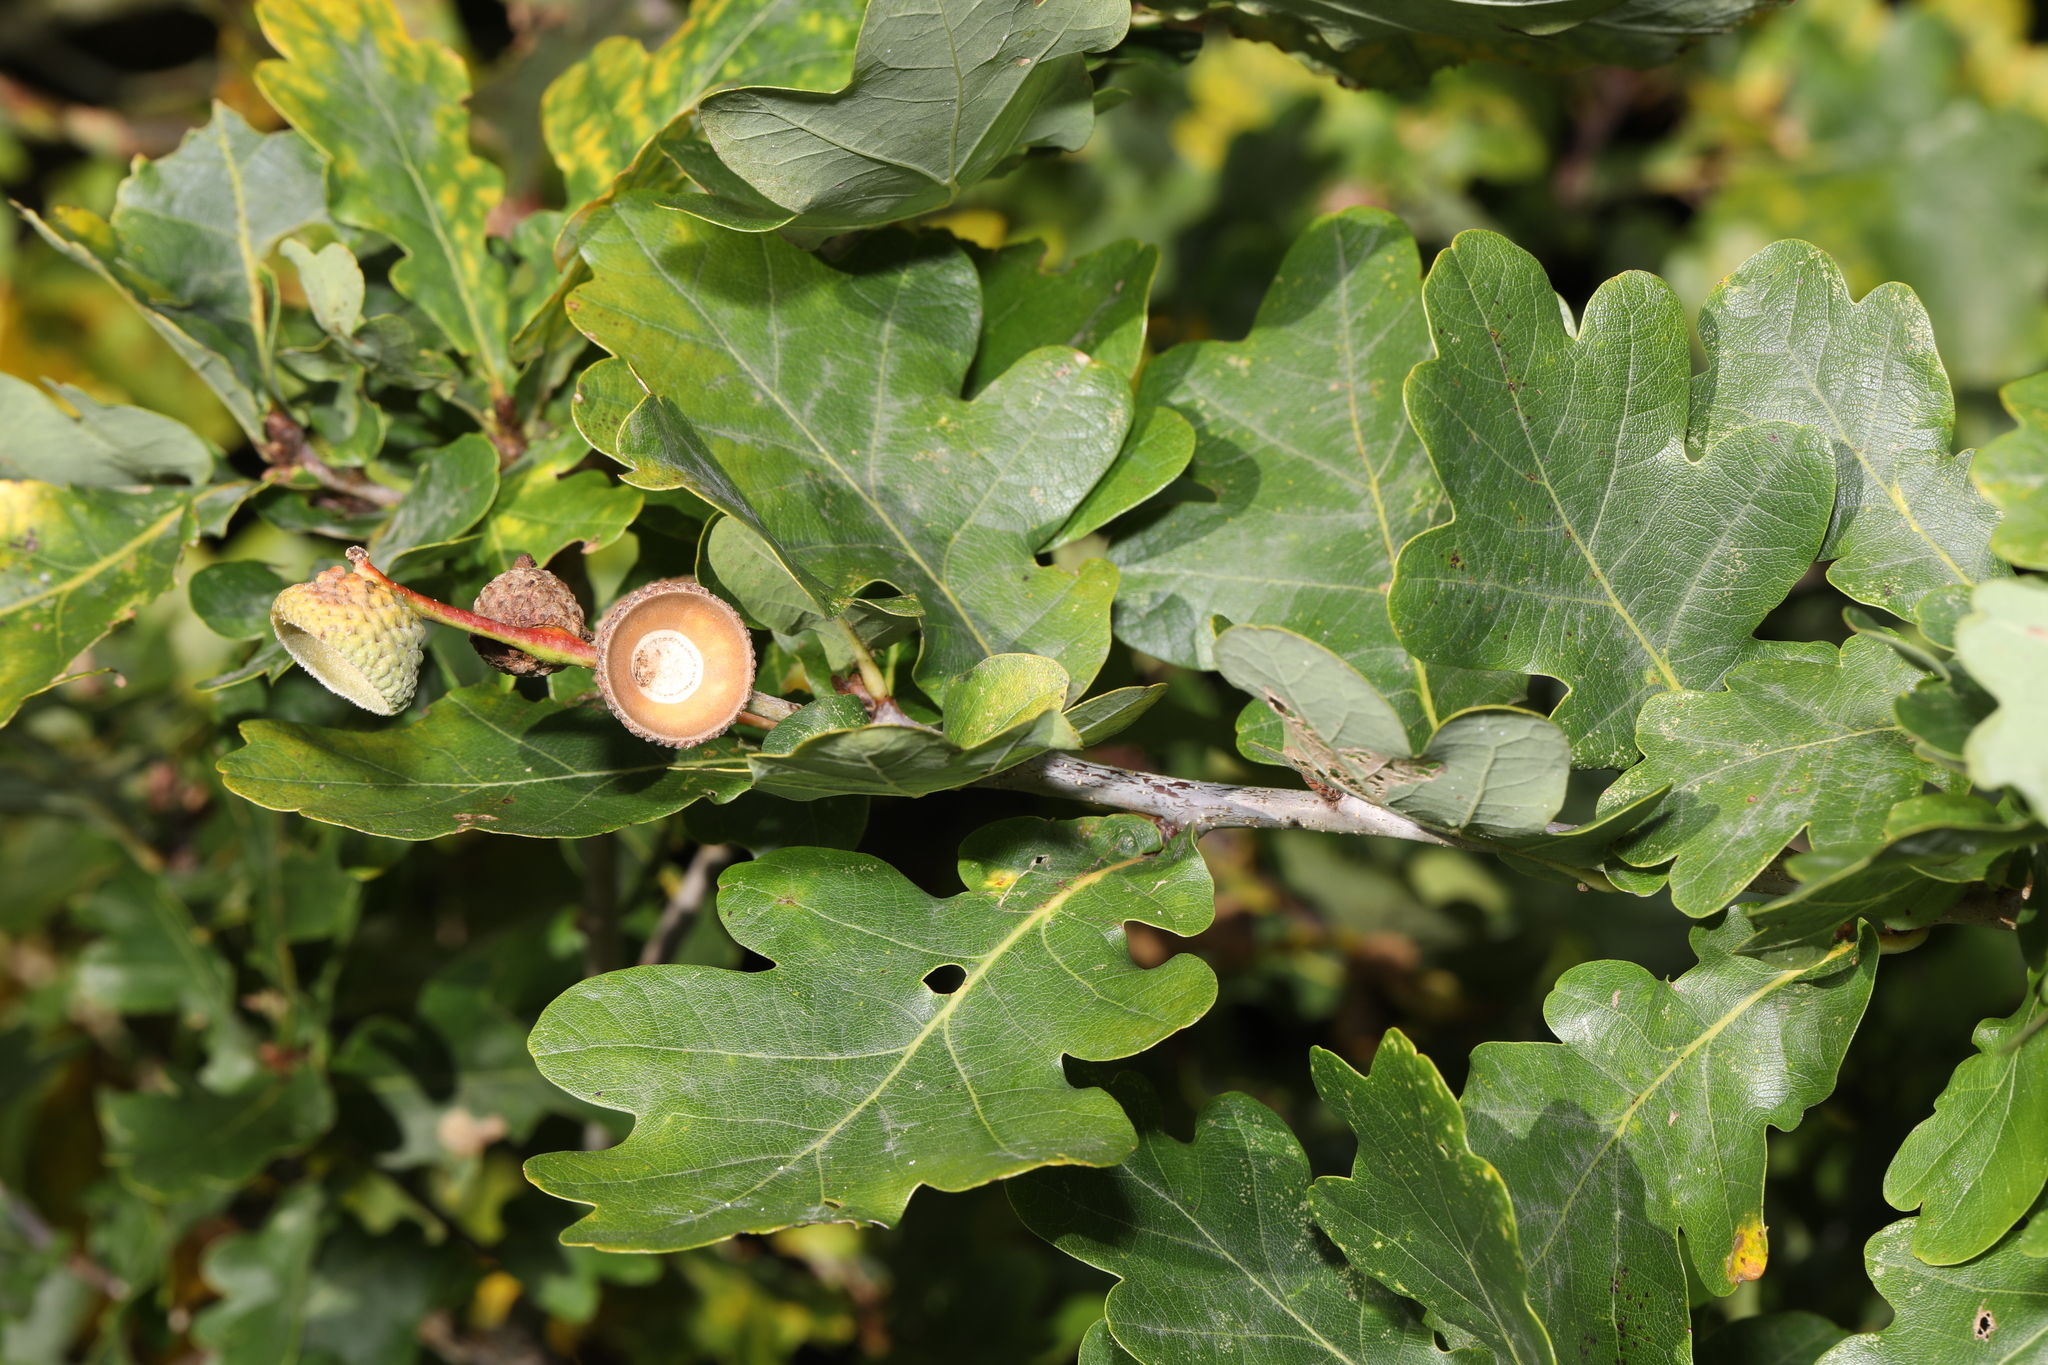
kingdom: Plantae
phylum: Tracheophyta
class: Magnoliopsida
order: Fagales
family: Fagaceae
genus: Quercus
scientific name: Quercus robur
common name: Pedunculate oak
